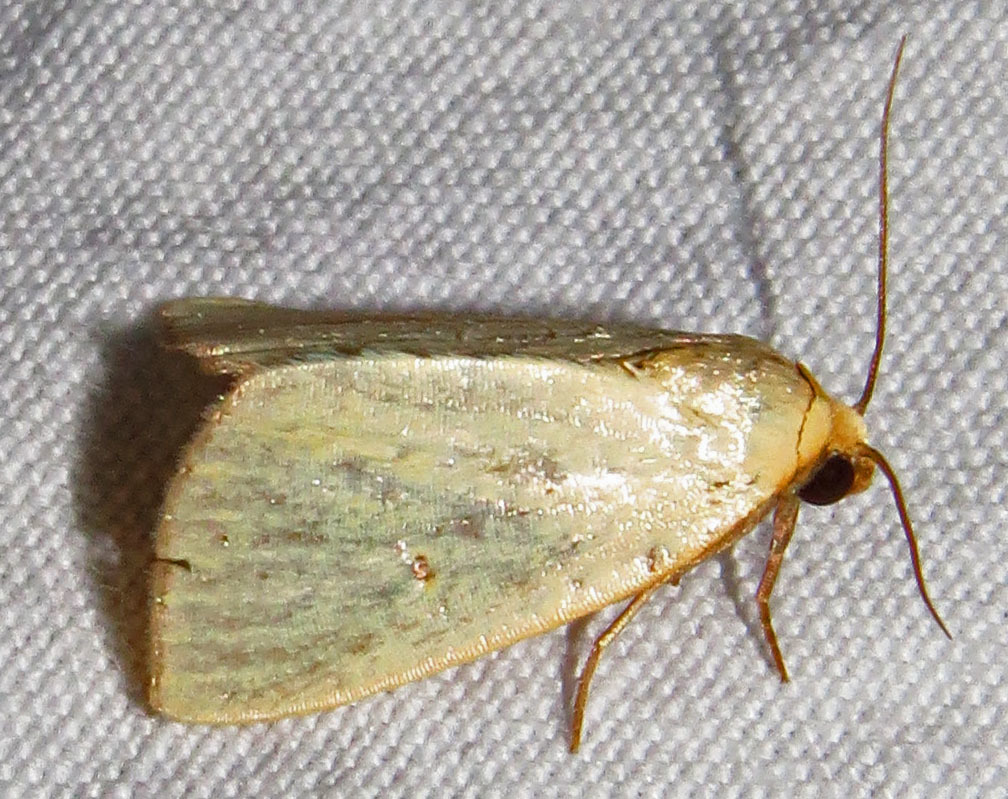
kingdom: Animalia
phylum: Arthropoda
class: Insecta
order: Lepidoptera
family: Noctuidae
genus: Marimatha
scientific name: Marimatha nigrofimbria
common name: Black-bordered lemon moth
